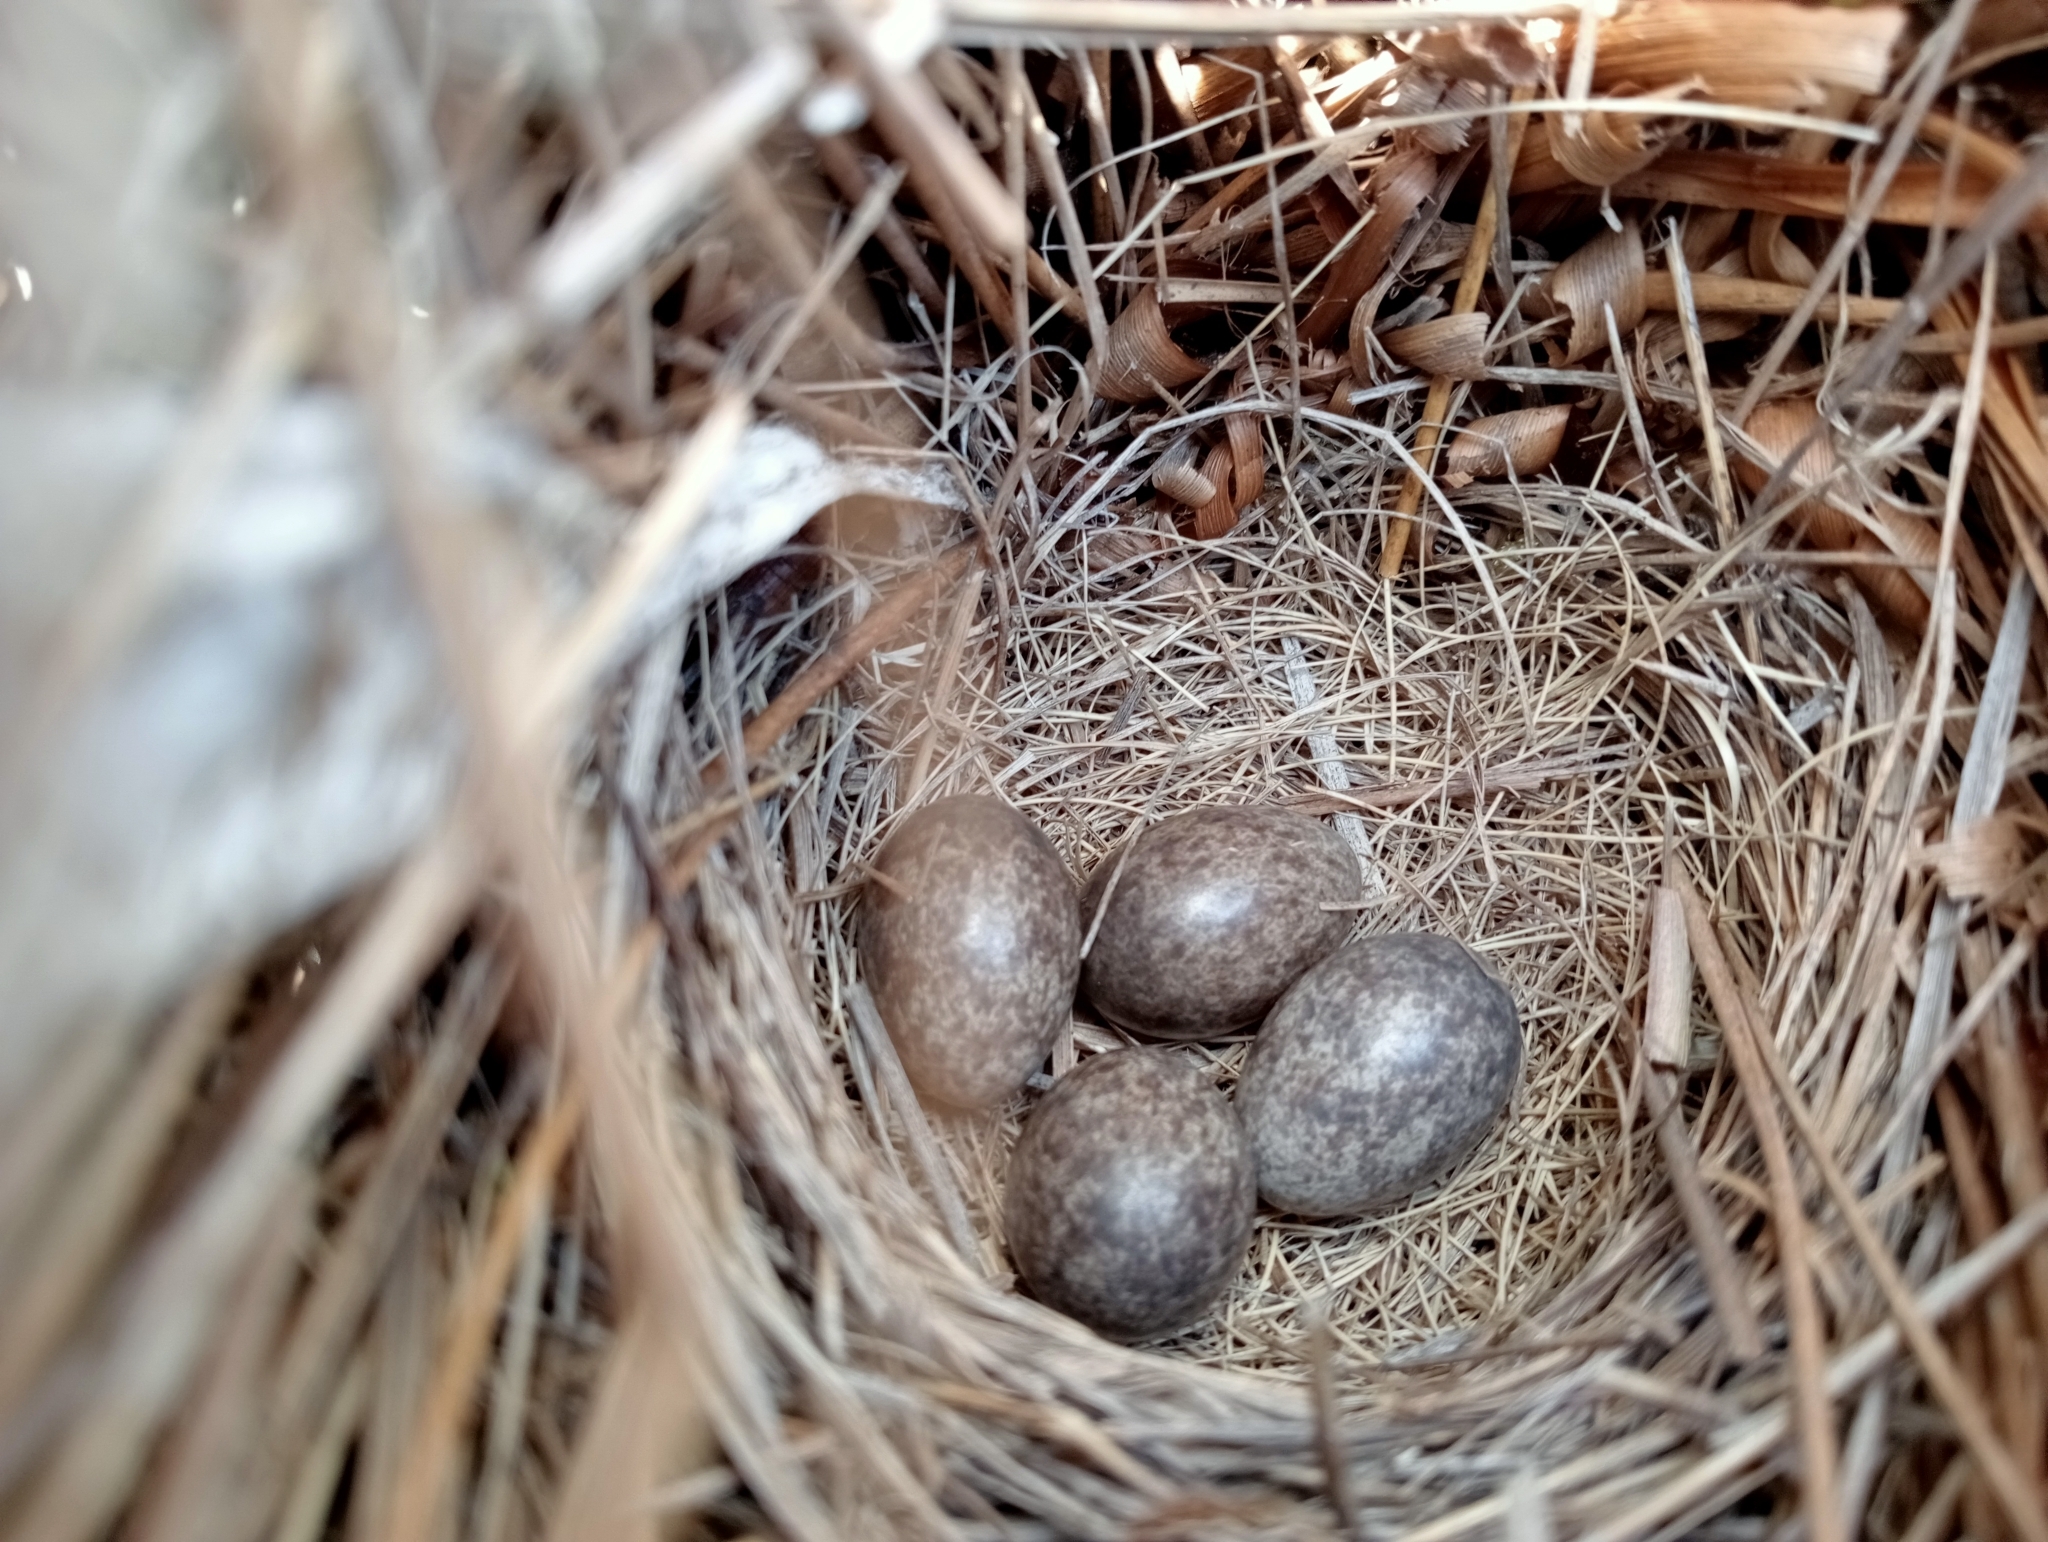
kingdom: Animalia
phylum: Chordata
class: Aves
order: Passeriformes
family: Alaudidae
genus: Alauda
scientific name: Alauda arvensis
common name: Eurasian skylark
